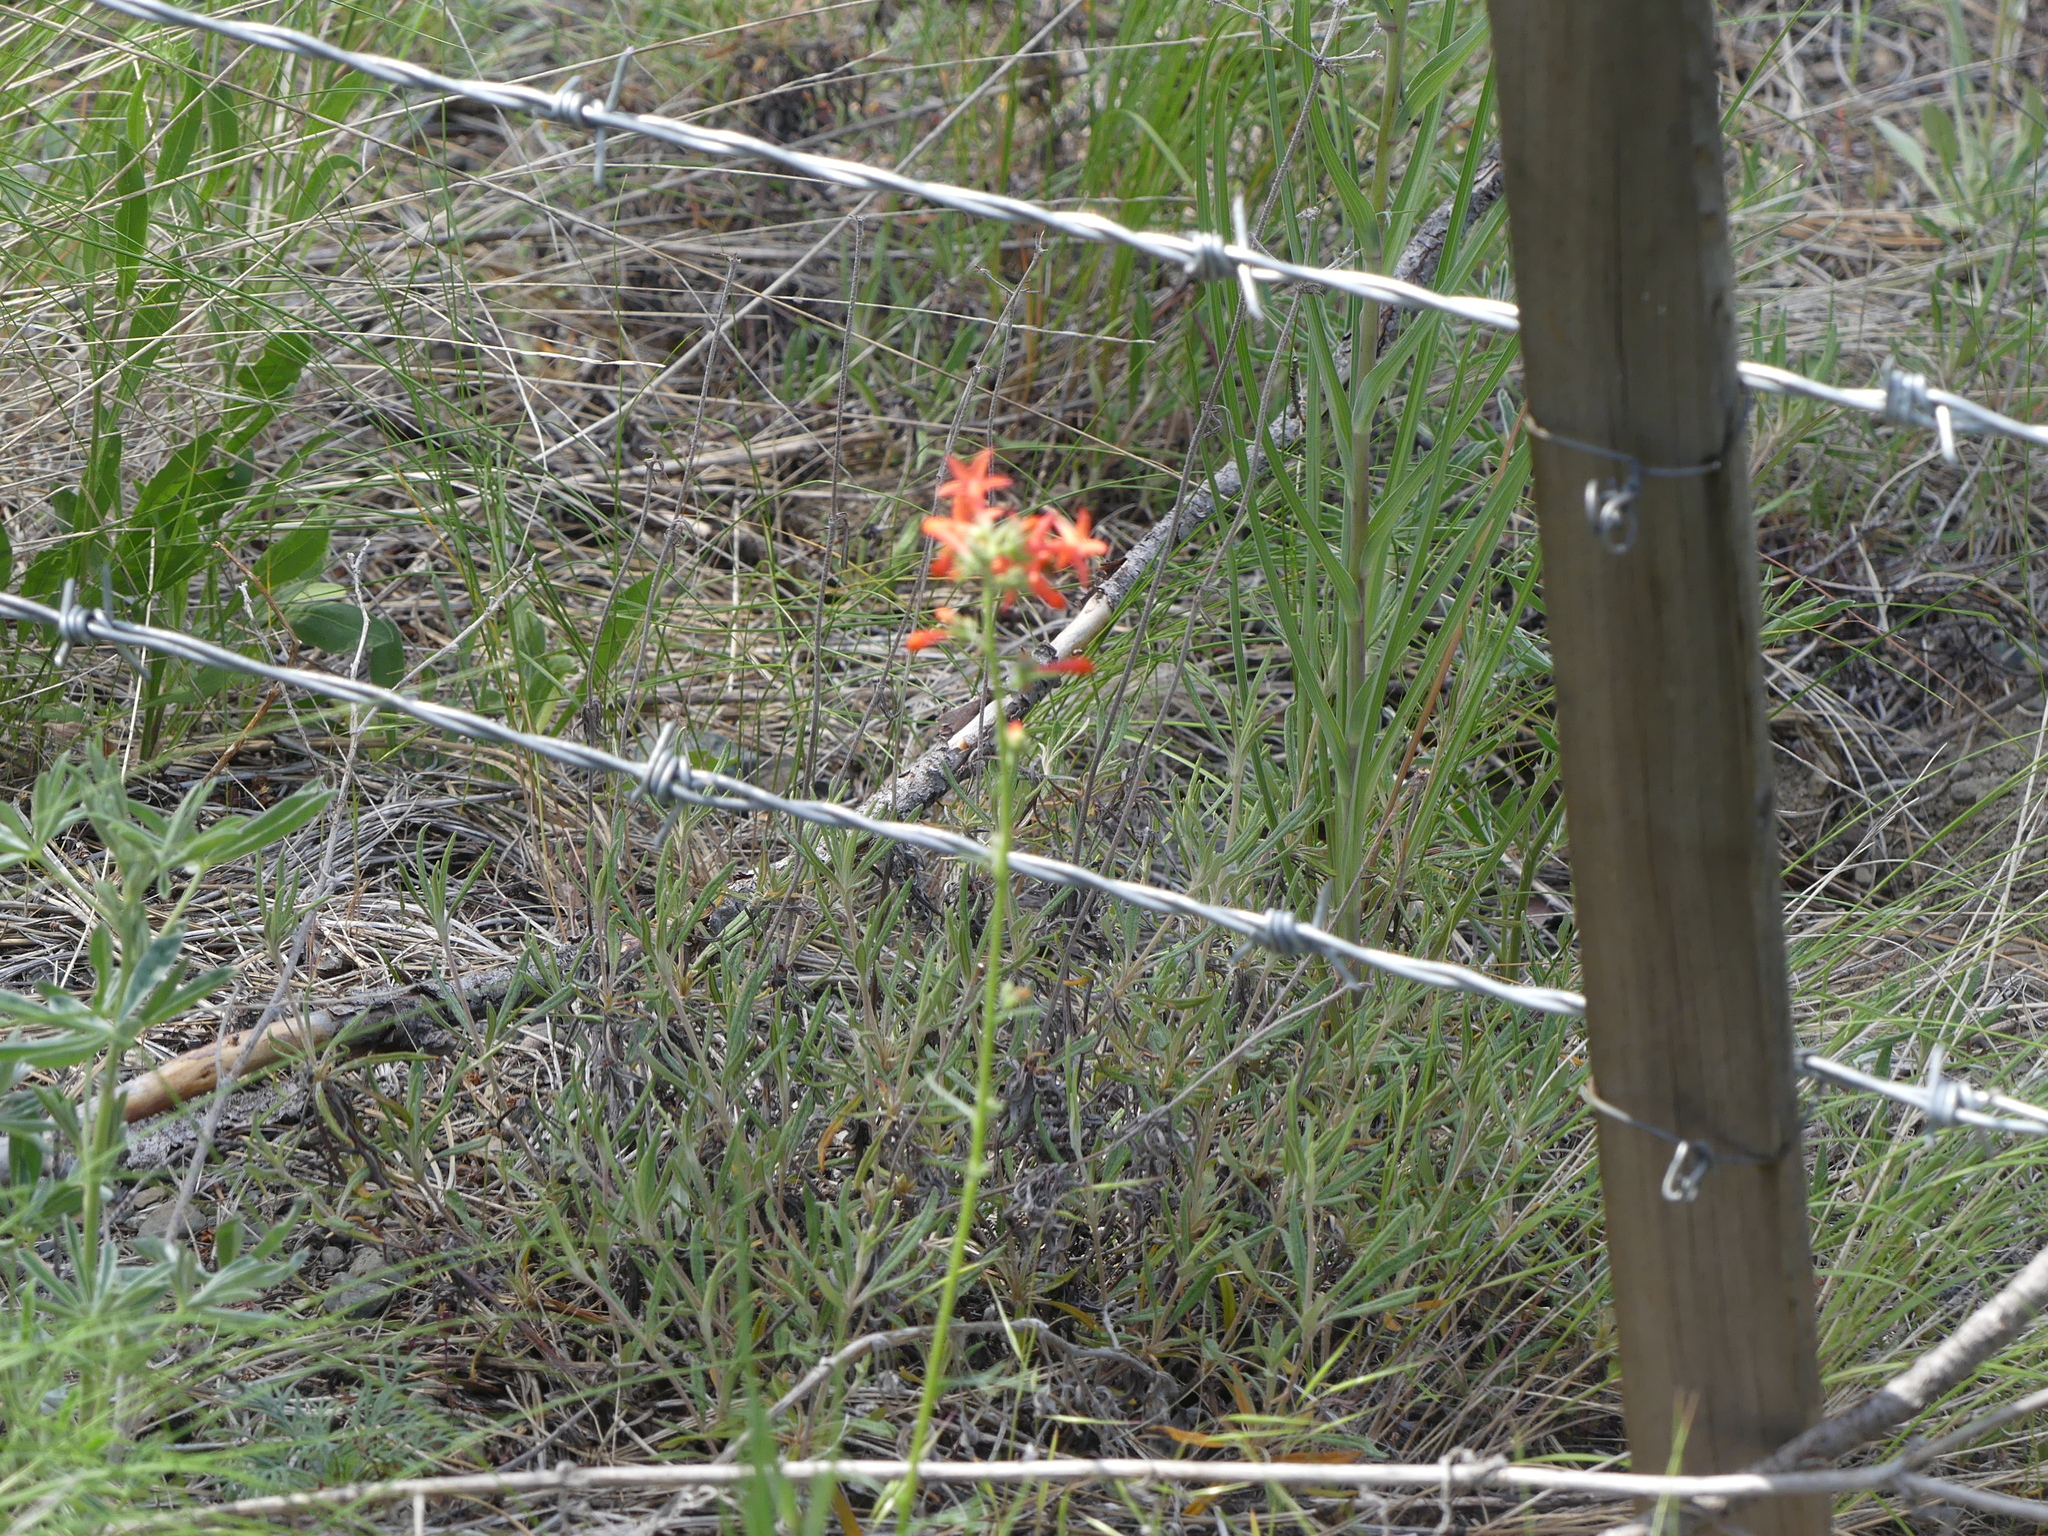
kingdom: Plantae
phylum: Tracheophyta
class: Magnoliopsida
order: Ericales
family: Polemoniaceae
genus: Ipomopsis
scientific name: Ipomopsis aggregata
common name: Scarlet gilia
